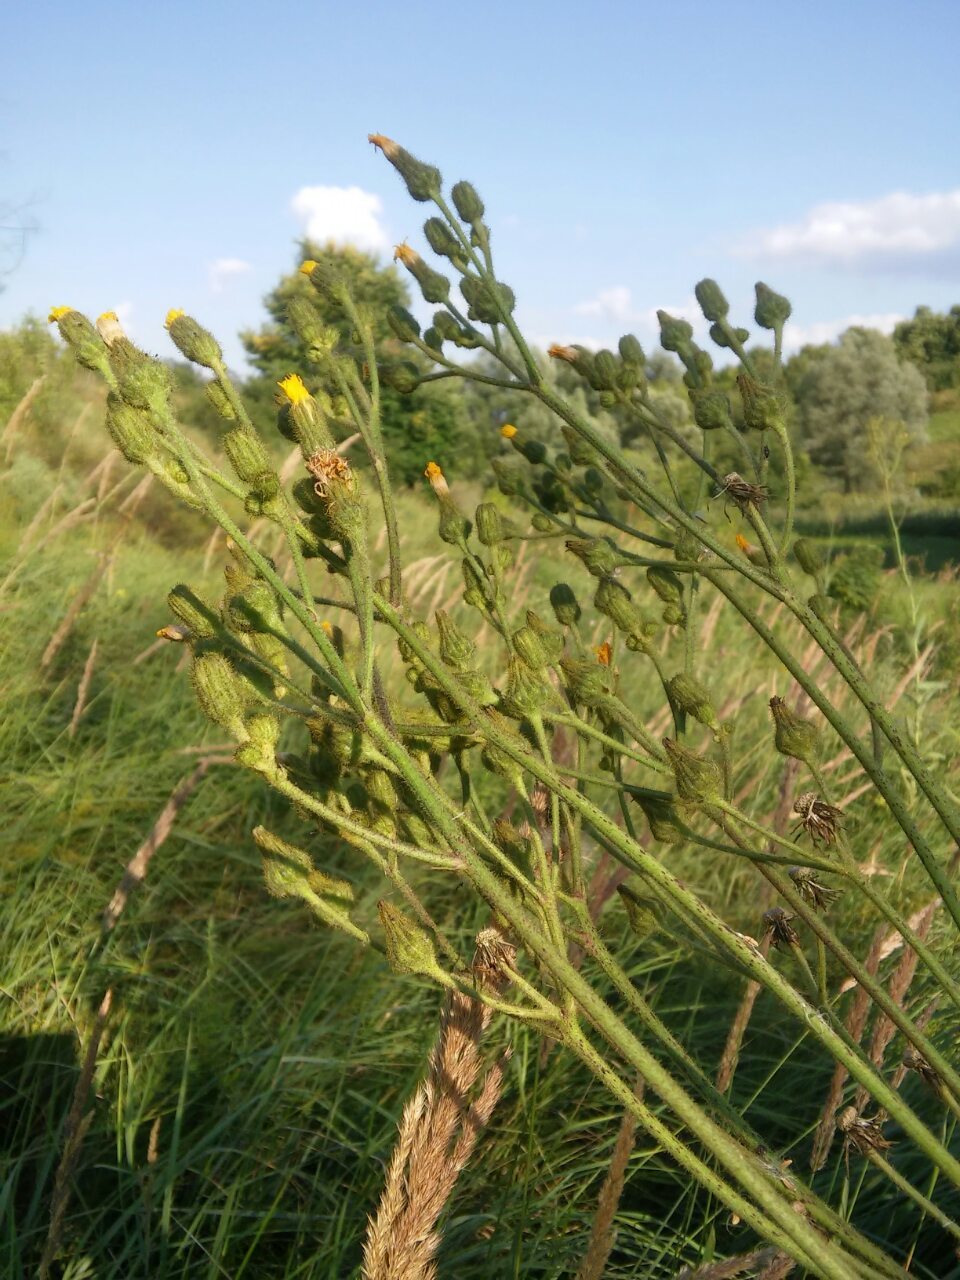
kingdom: Plantae
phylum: Tracheophyta
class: Magnoliopsida
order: Asterales
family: Asteraceae
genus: Sonchus
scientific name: Sonchus palustris
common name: Marsh sow-thistle
